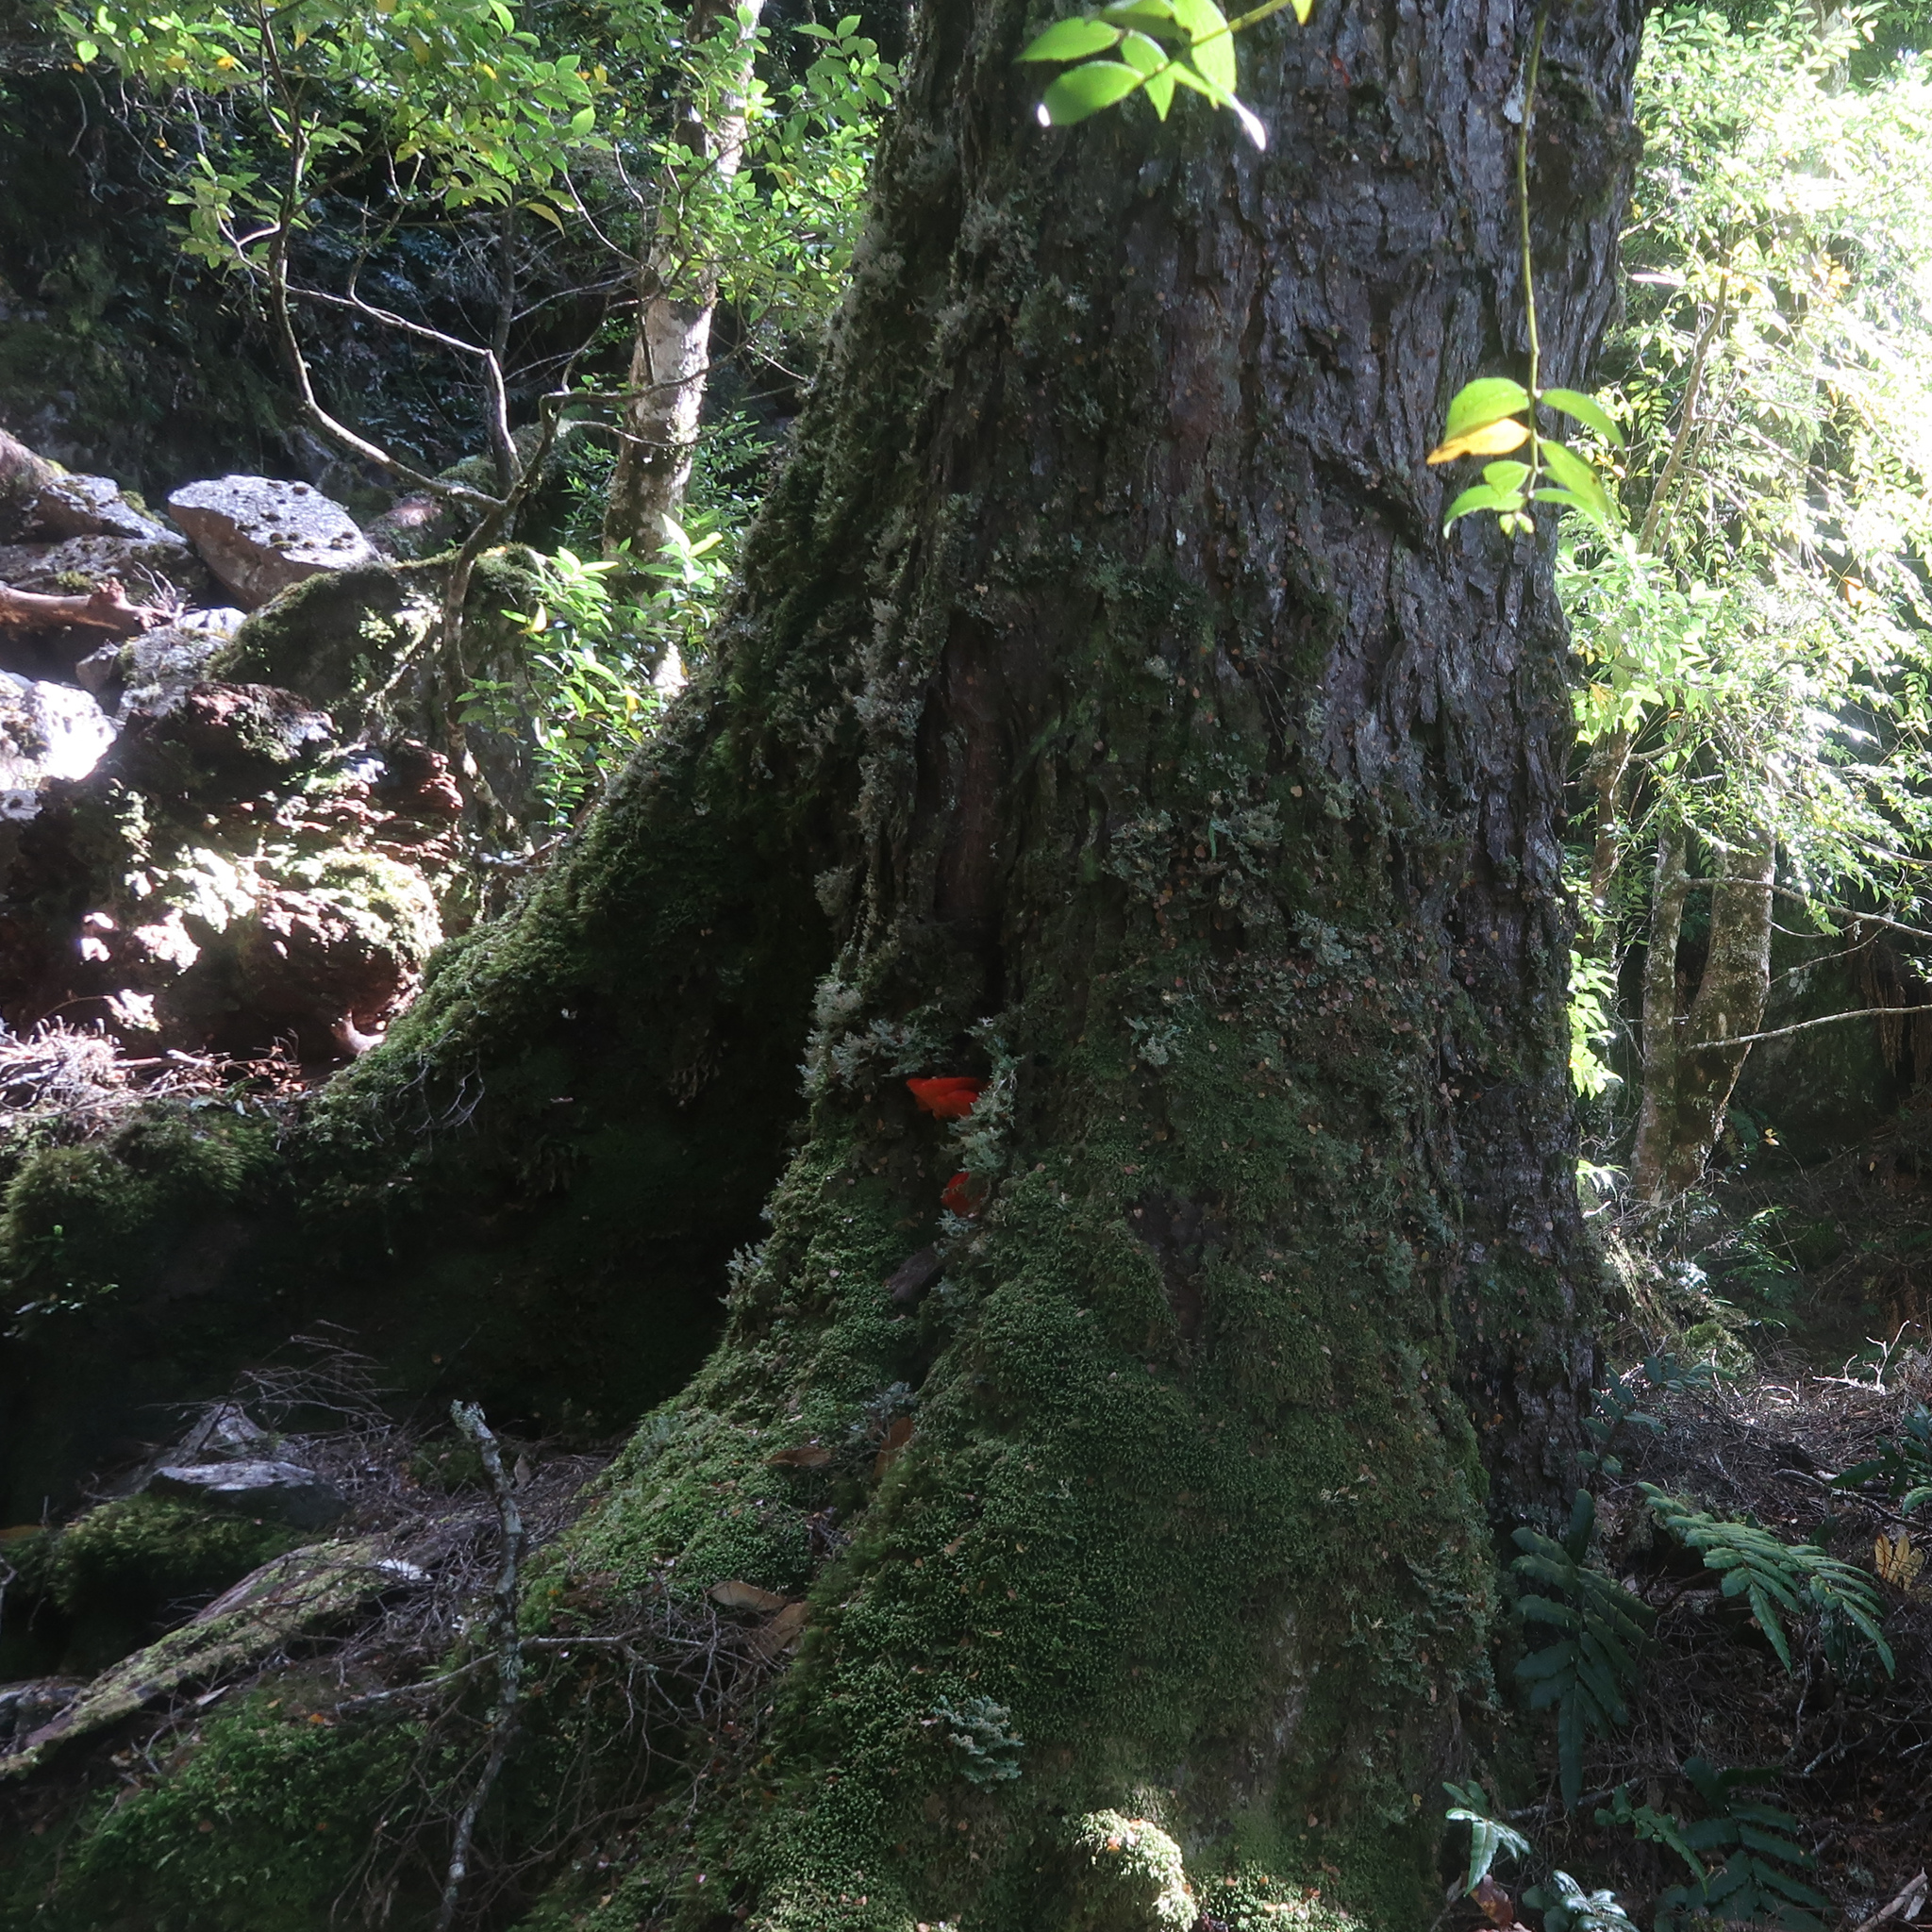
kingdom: Fungi
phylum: Basidiomycota
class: Agaricomycetes
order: Polyporales
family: Incrustoporiaceae
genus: Tyromyces
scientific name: Tyromyces pulcherrimus
